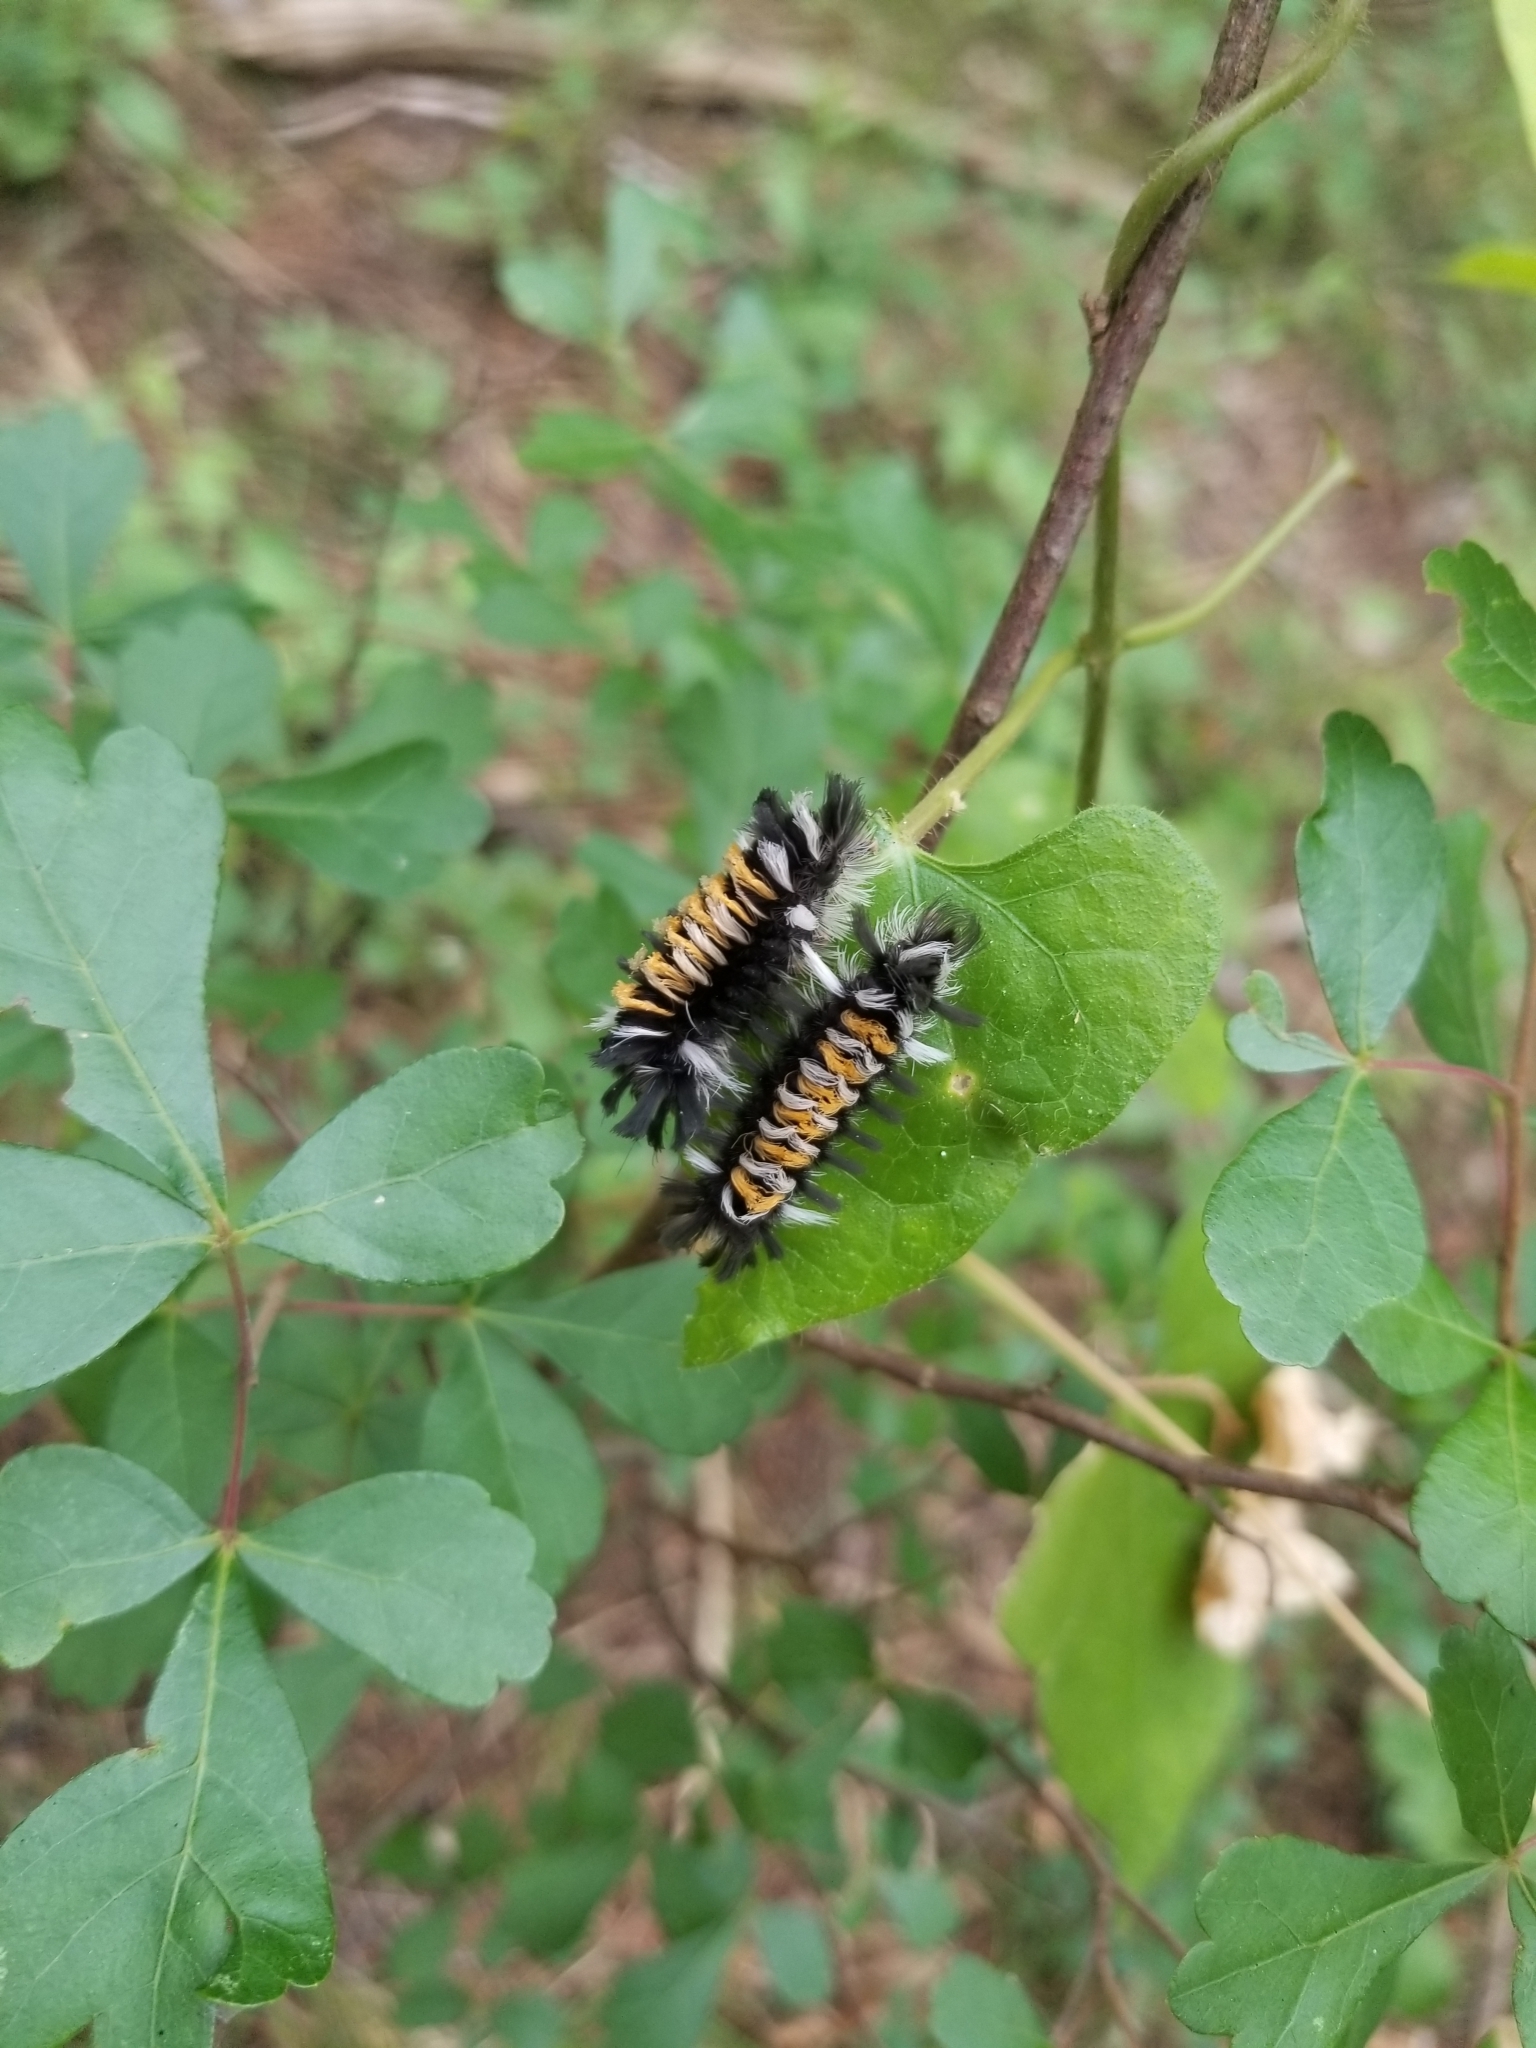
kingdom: Animalia
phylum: Arthropoda
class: Insecta
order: Lepidoptera
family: Erebidae
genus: Euchaetes
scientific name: Euchaetes egle
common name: Milkweed tussock moth
